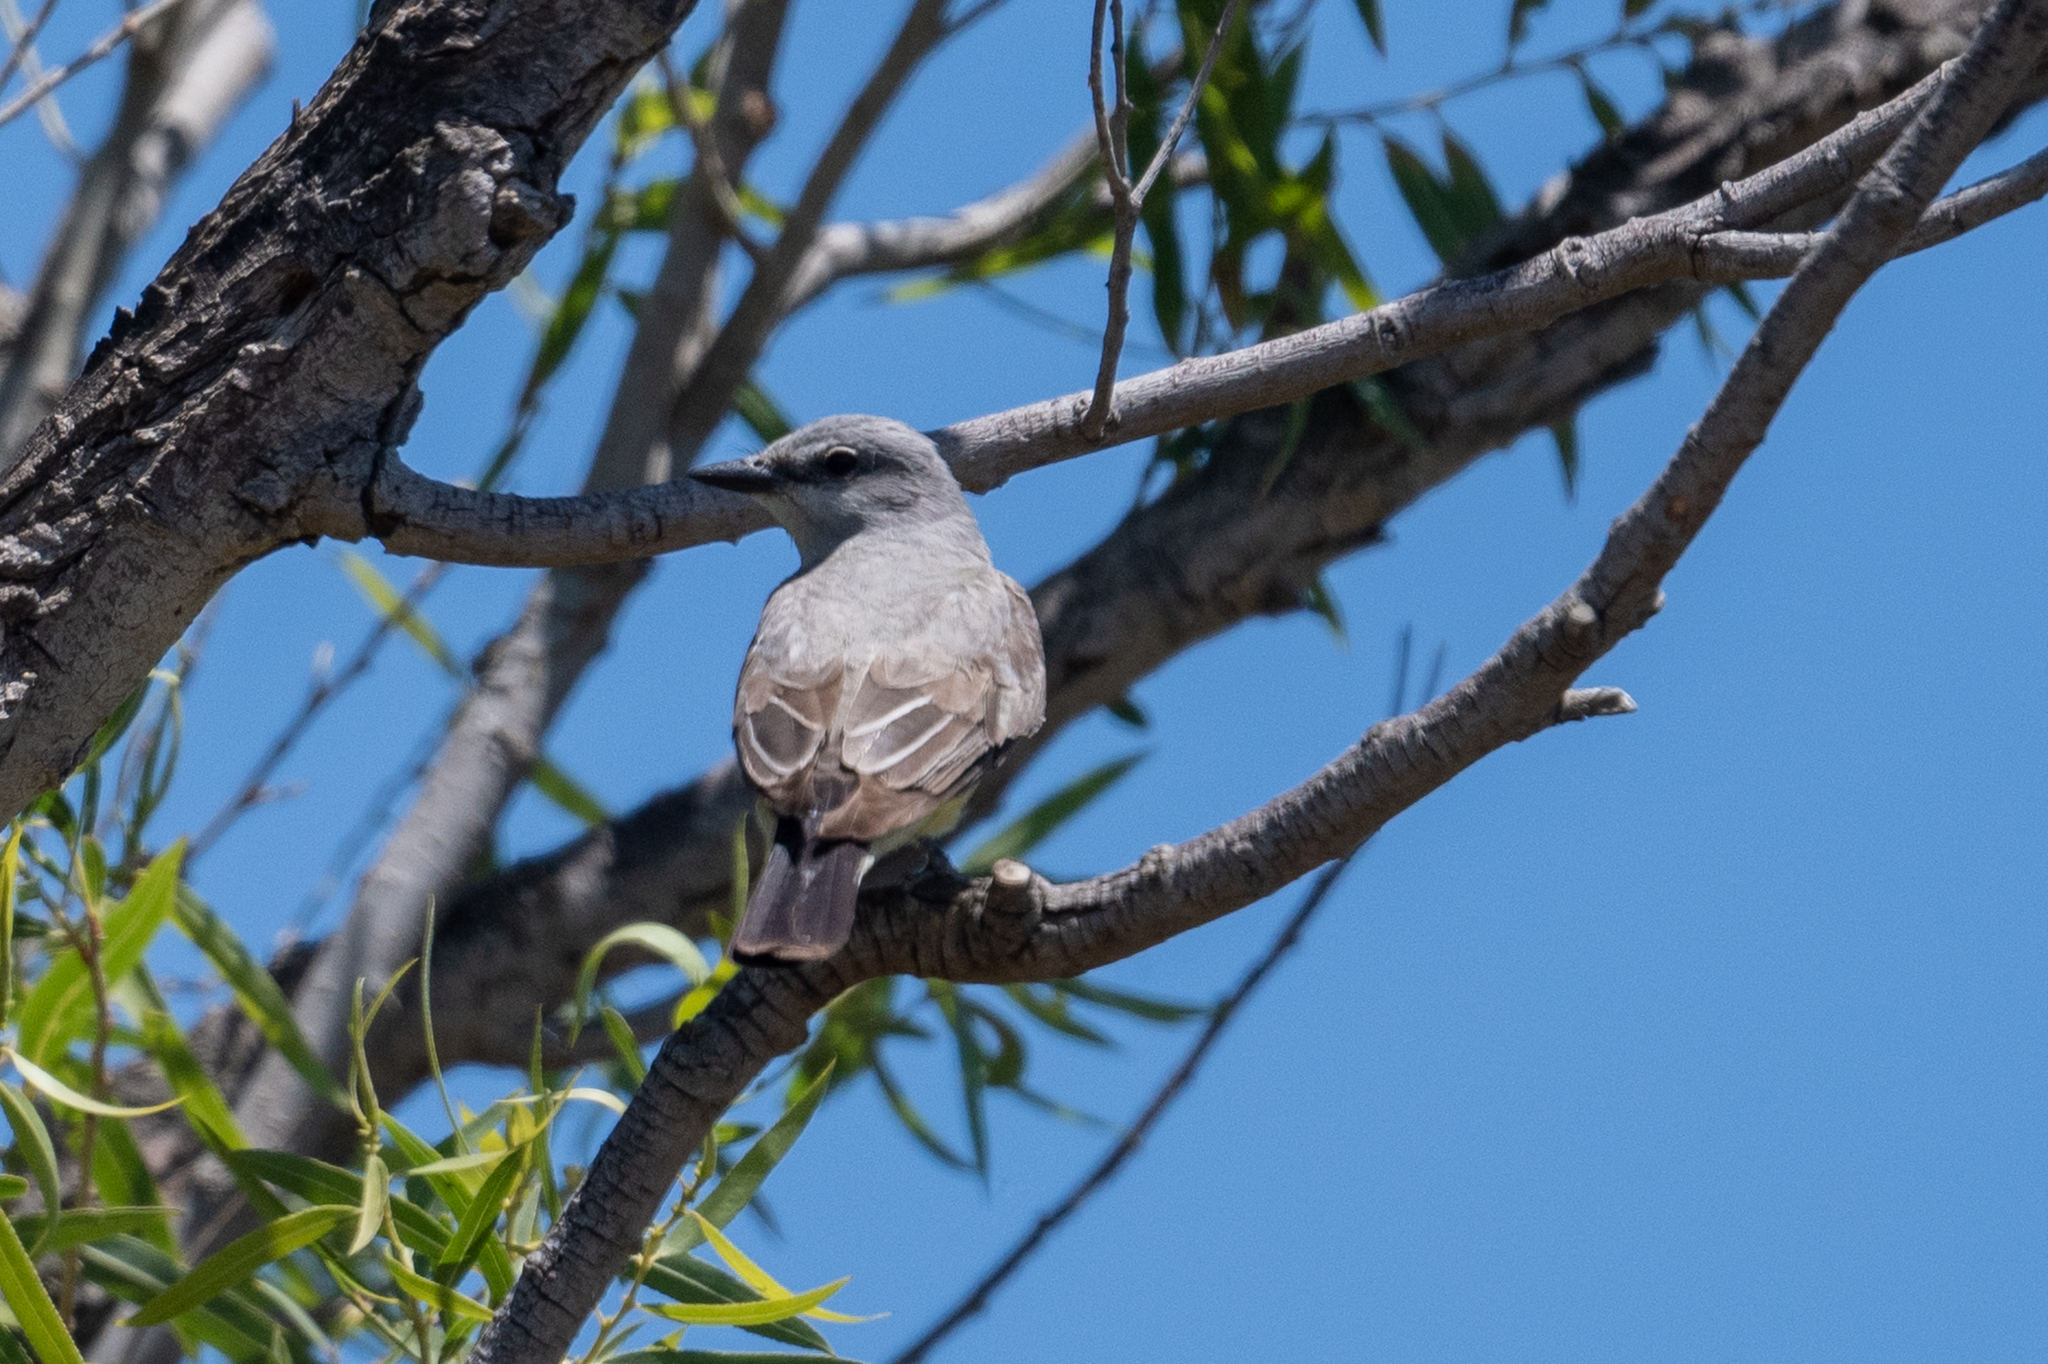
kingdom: Animalia
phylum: Chordata
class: Aves
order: Passeriformes
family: Tyrannidae
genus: Tyrannus
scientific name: Tyrannus verticalis
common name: Western kingbird
